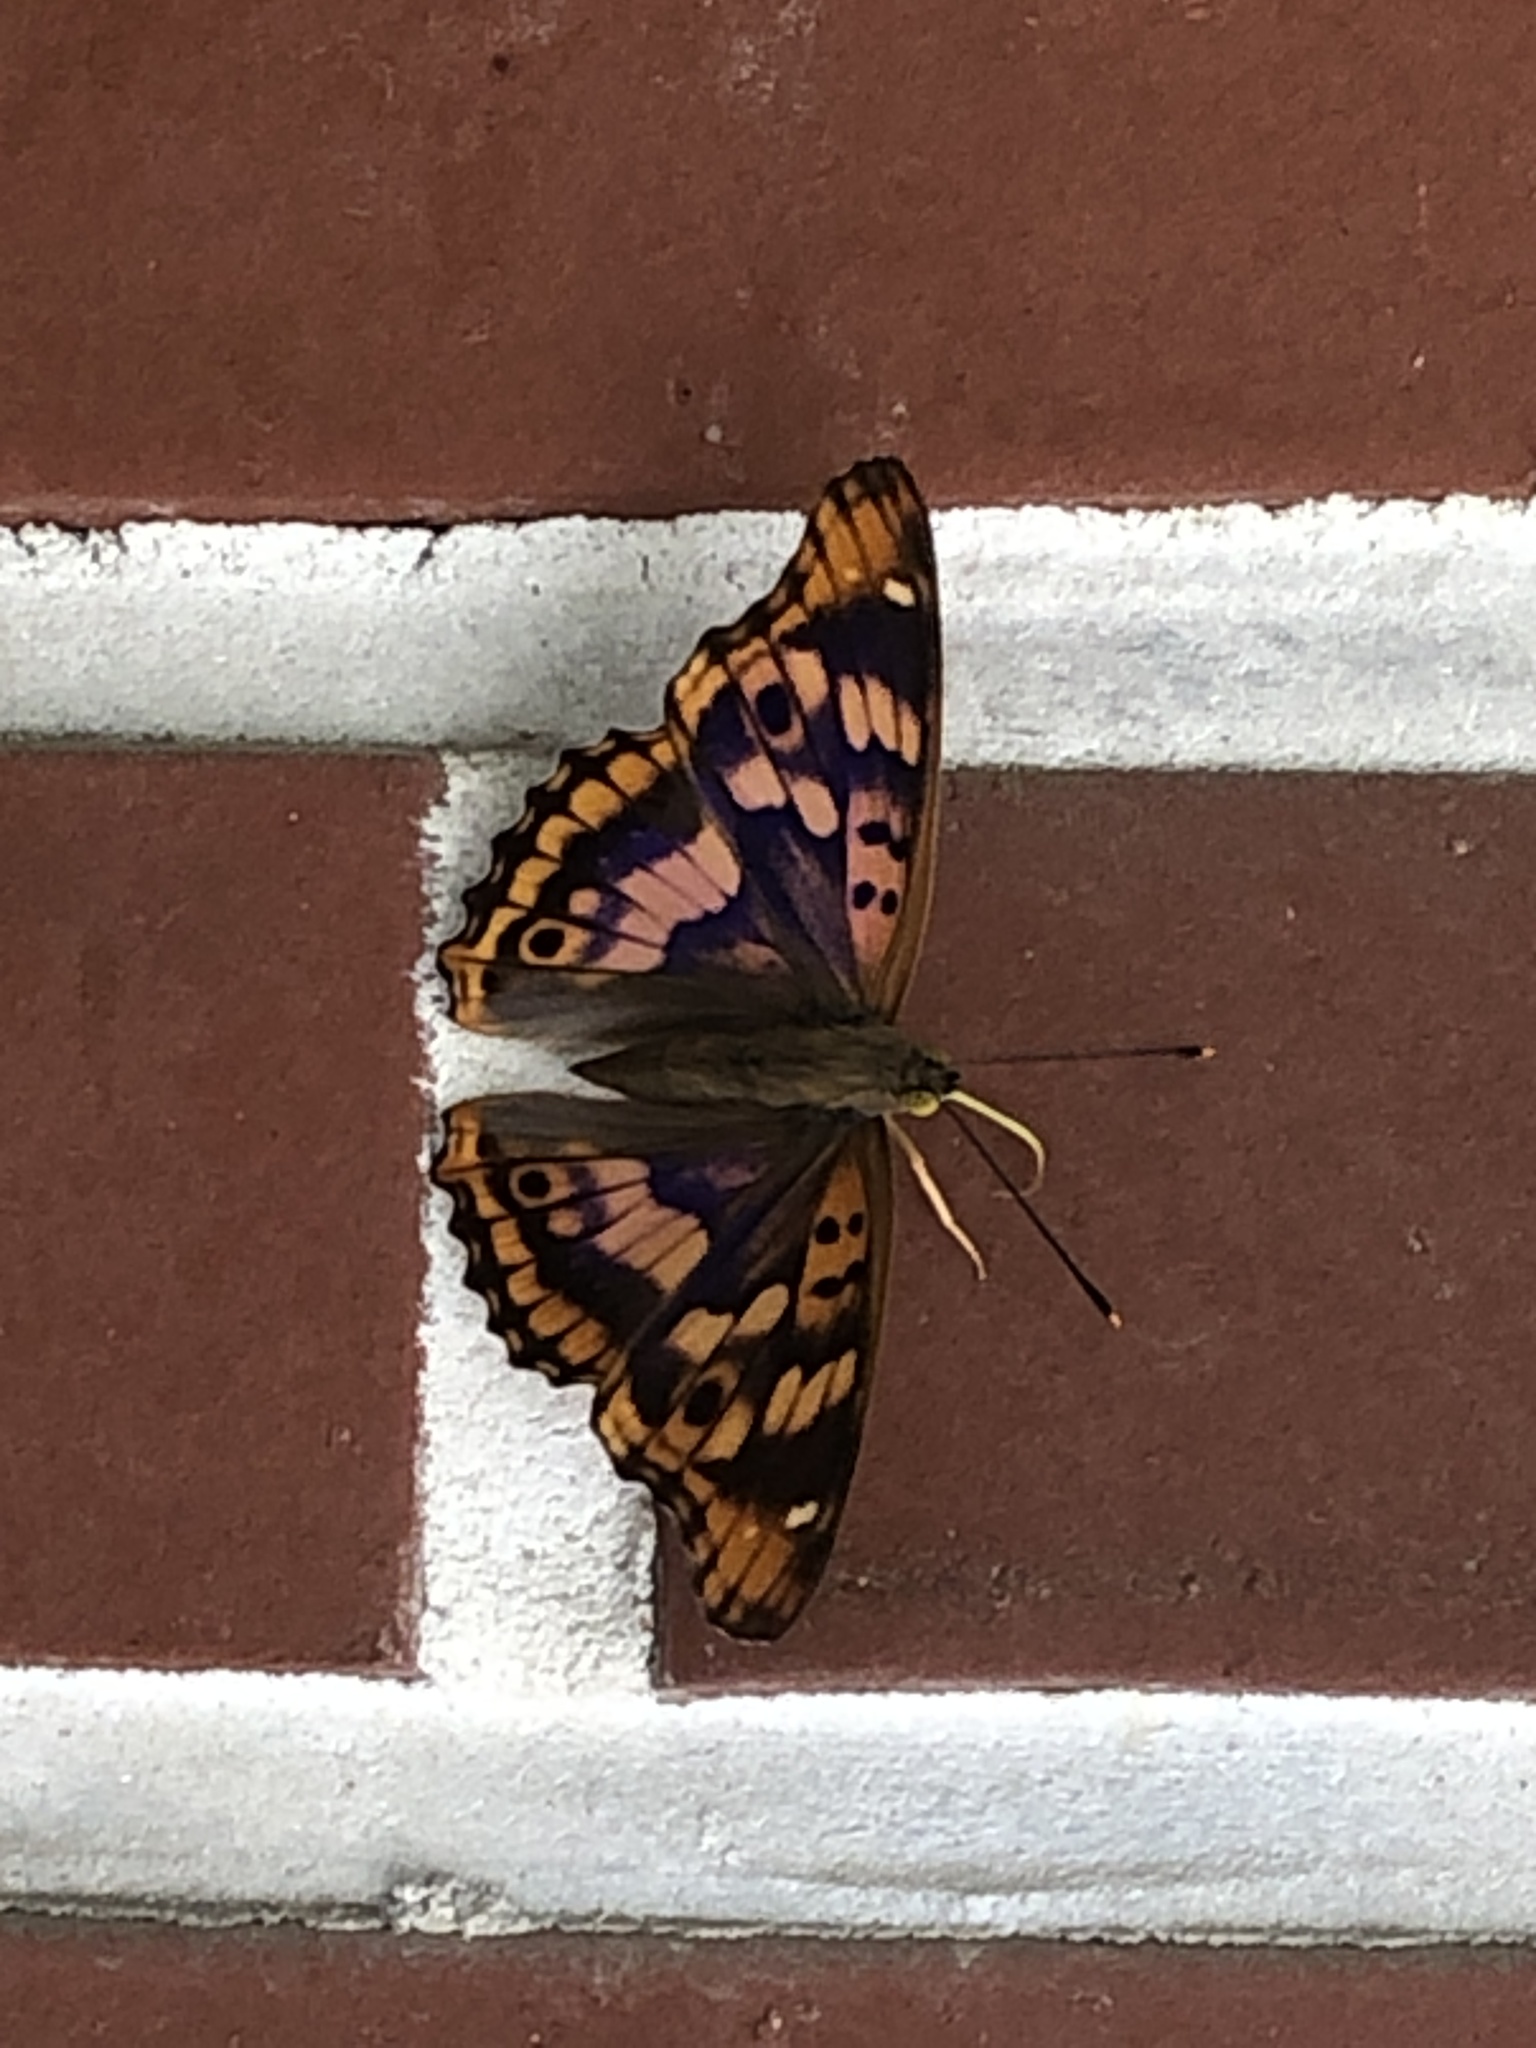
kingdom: Animalia
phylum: Arthropoda
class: Insecta
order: Lepidoptera
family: Nymphalidae
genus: Apatura
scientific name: Apatura ilia
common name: Lesser purple emperor
